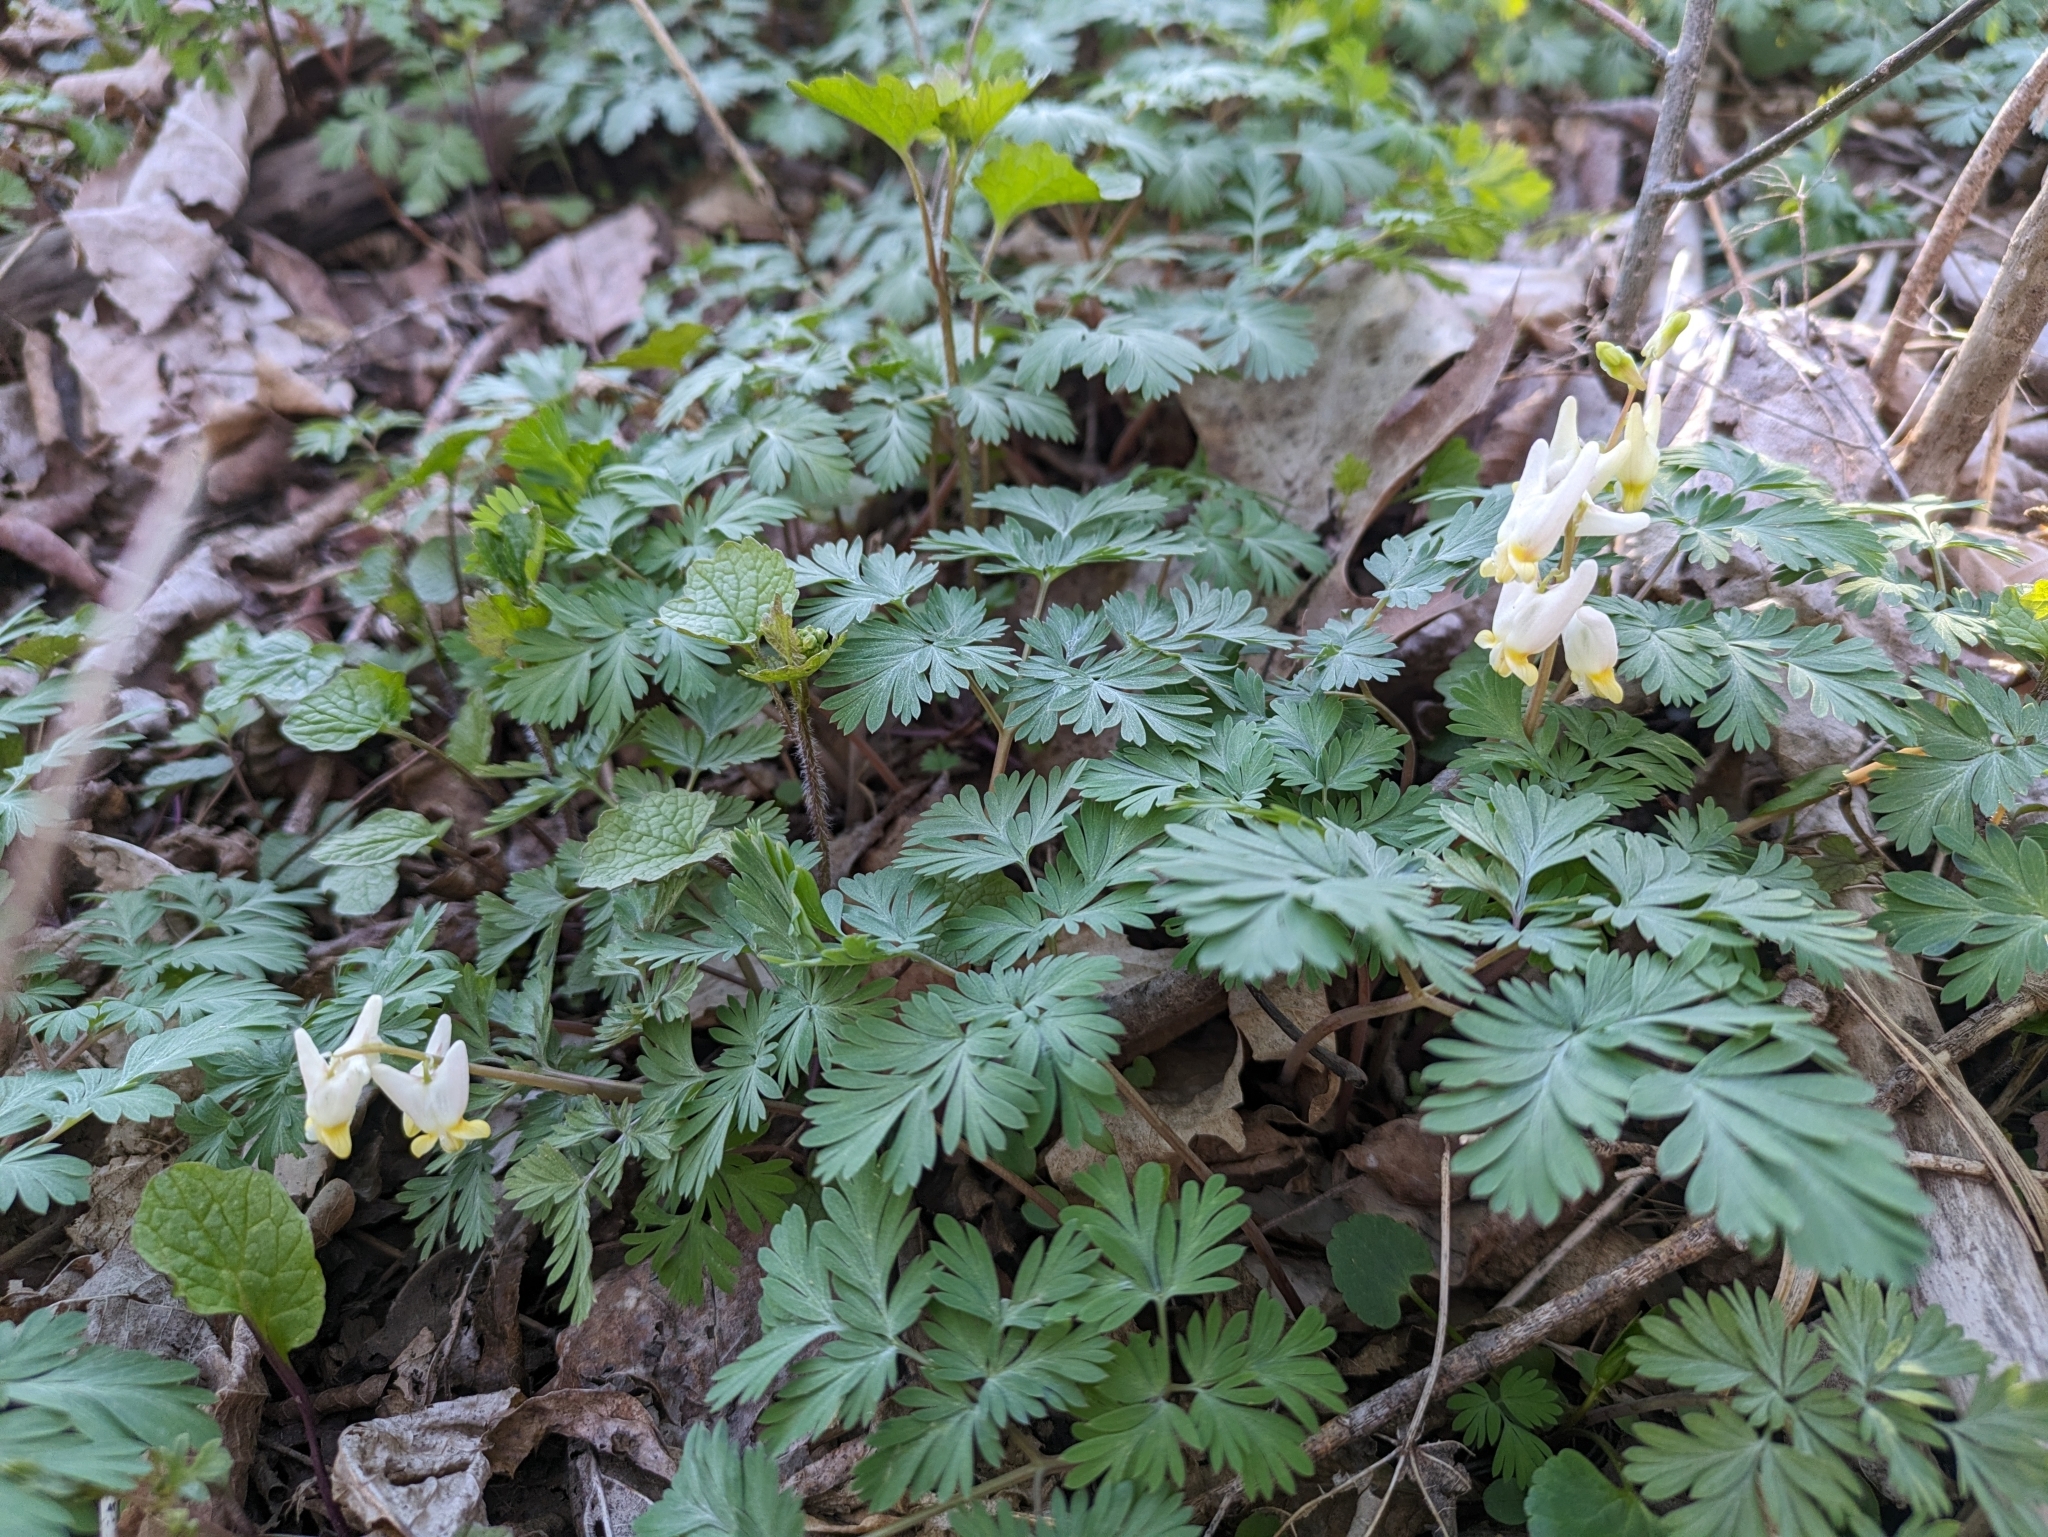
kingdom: Plantae
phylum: Tracheophyta
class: Magnoliopsida
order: Ranunculales
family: Papaveraceae
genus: Dicentra
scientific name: Dicentra cucullaria
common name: Dutchman's breeches
